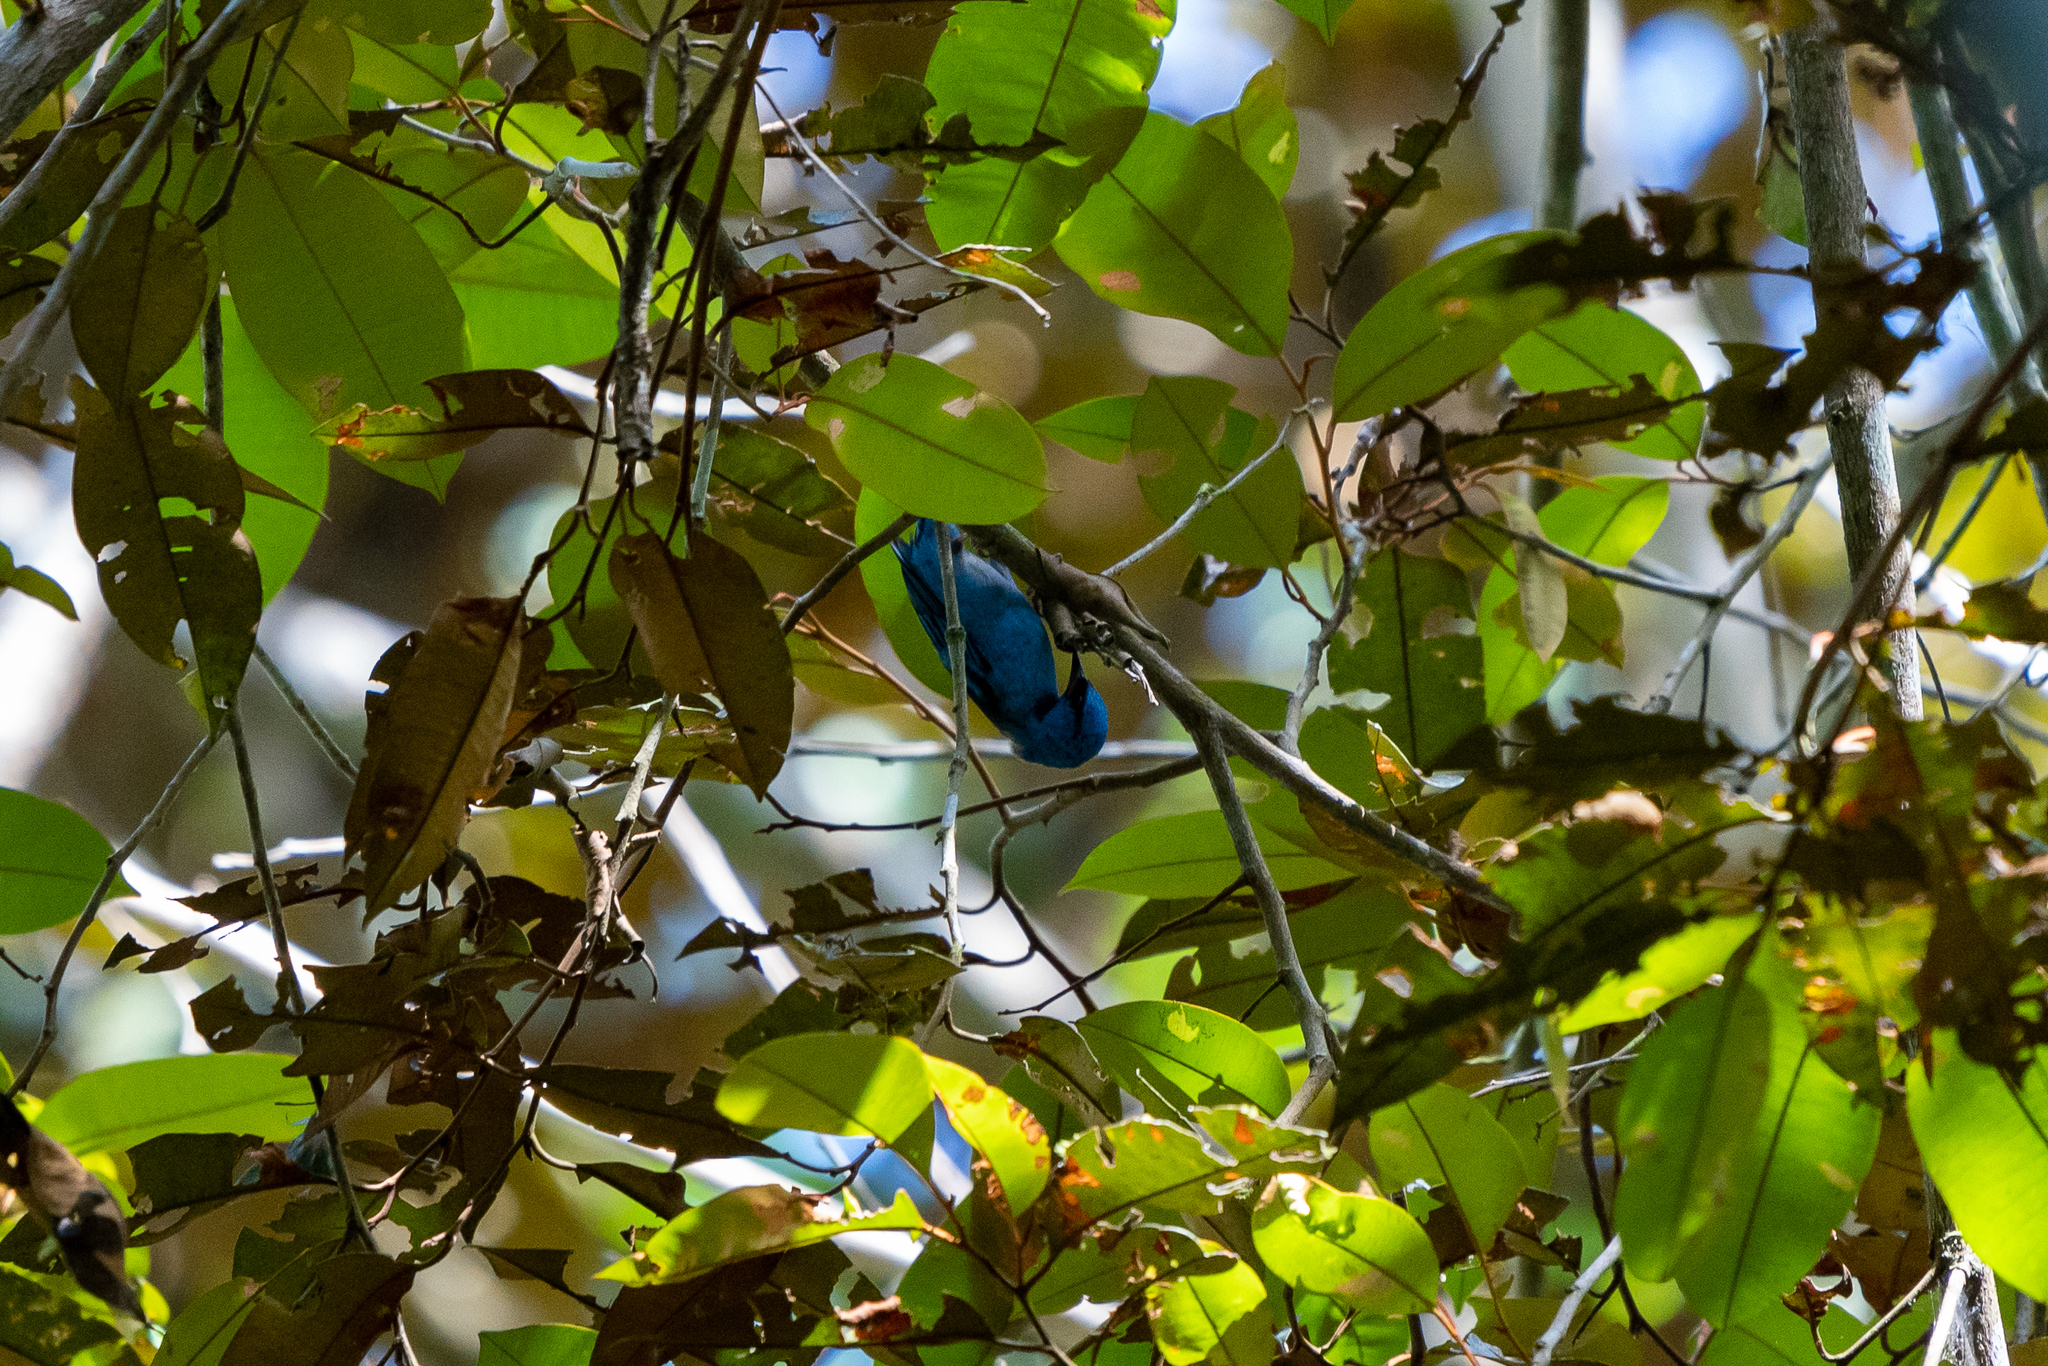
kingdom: Animalia
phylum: Chordata
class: Aves
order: Passeriformes
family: Thraupidae
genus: Dacnis
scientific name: Dacnis cayana
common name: Blue dacnis
